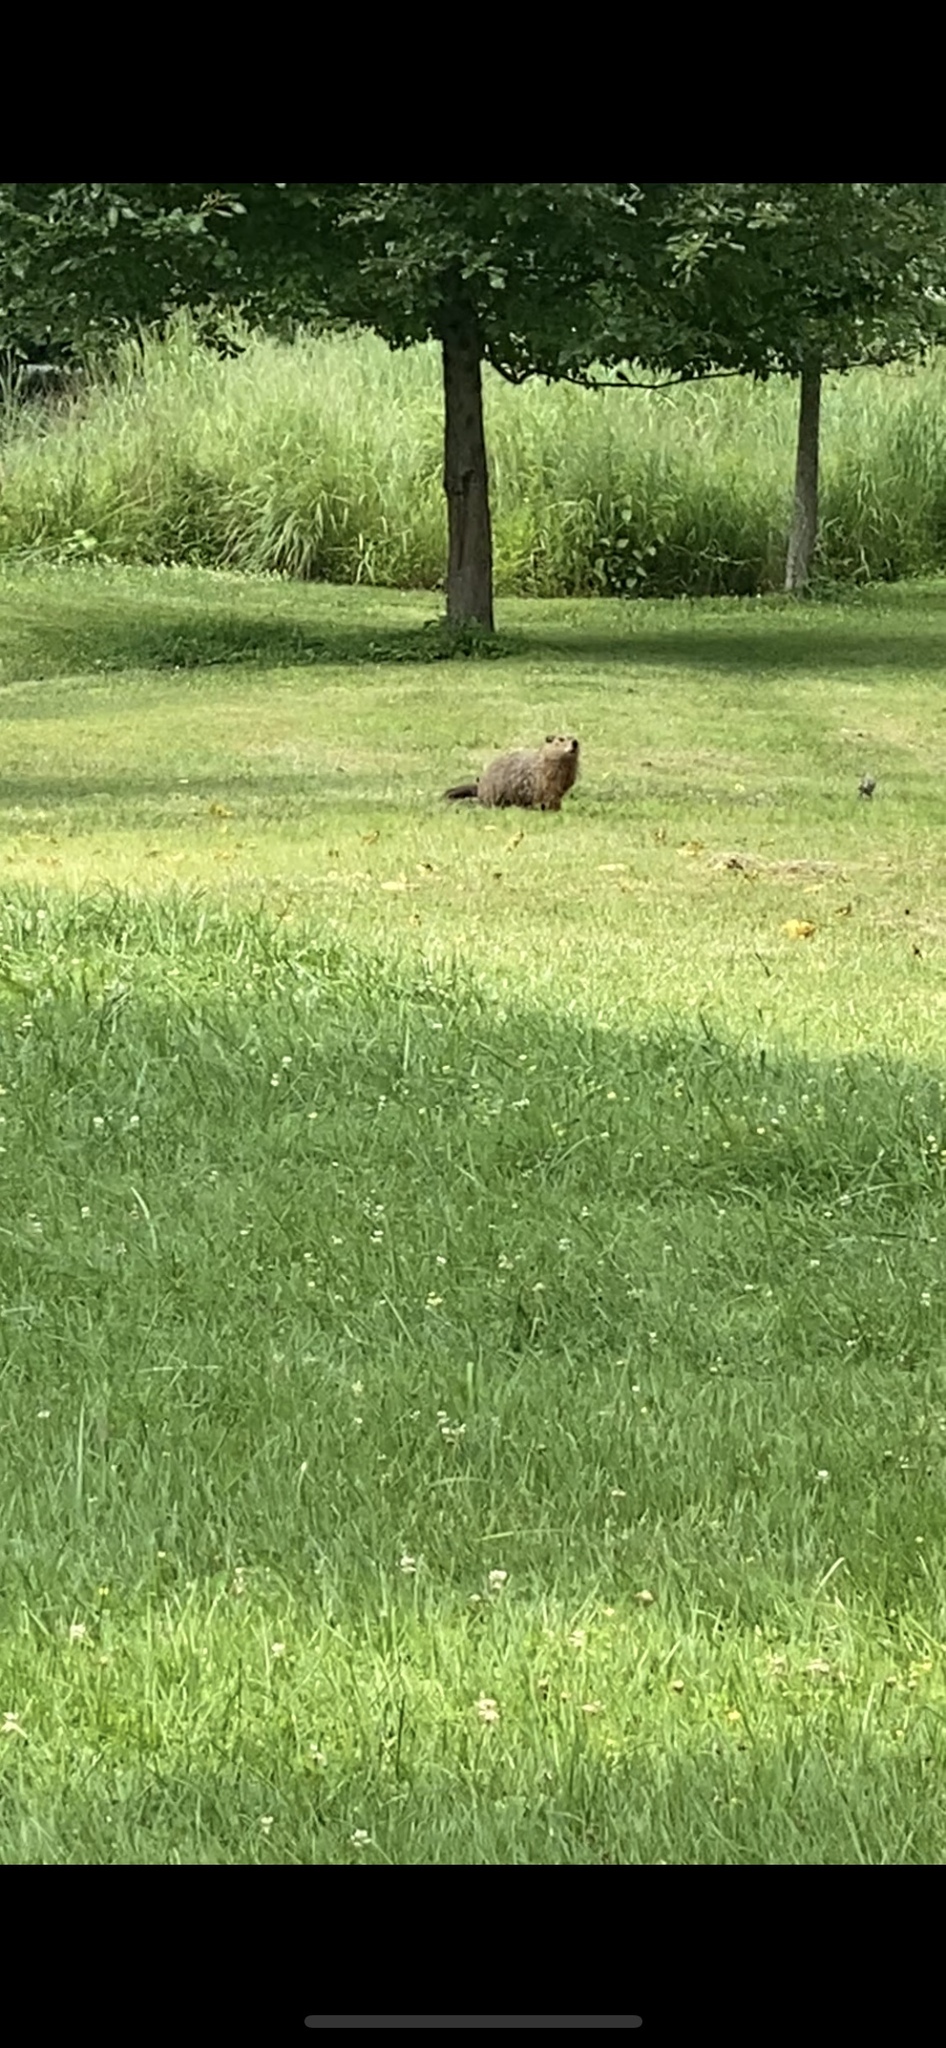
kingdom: Animalia
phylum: Chordata
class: Mammalia
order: Rodentia
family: Sciuridae
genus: Marmota
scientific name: Marmota monax
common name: Groundhog
